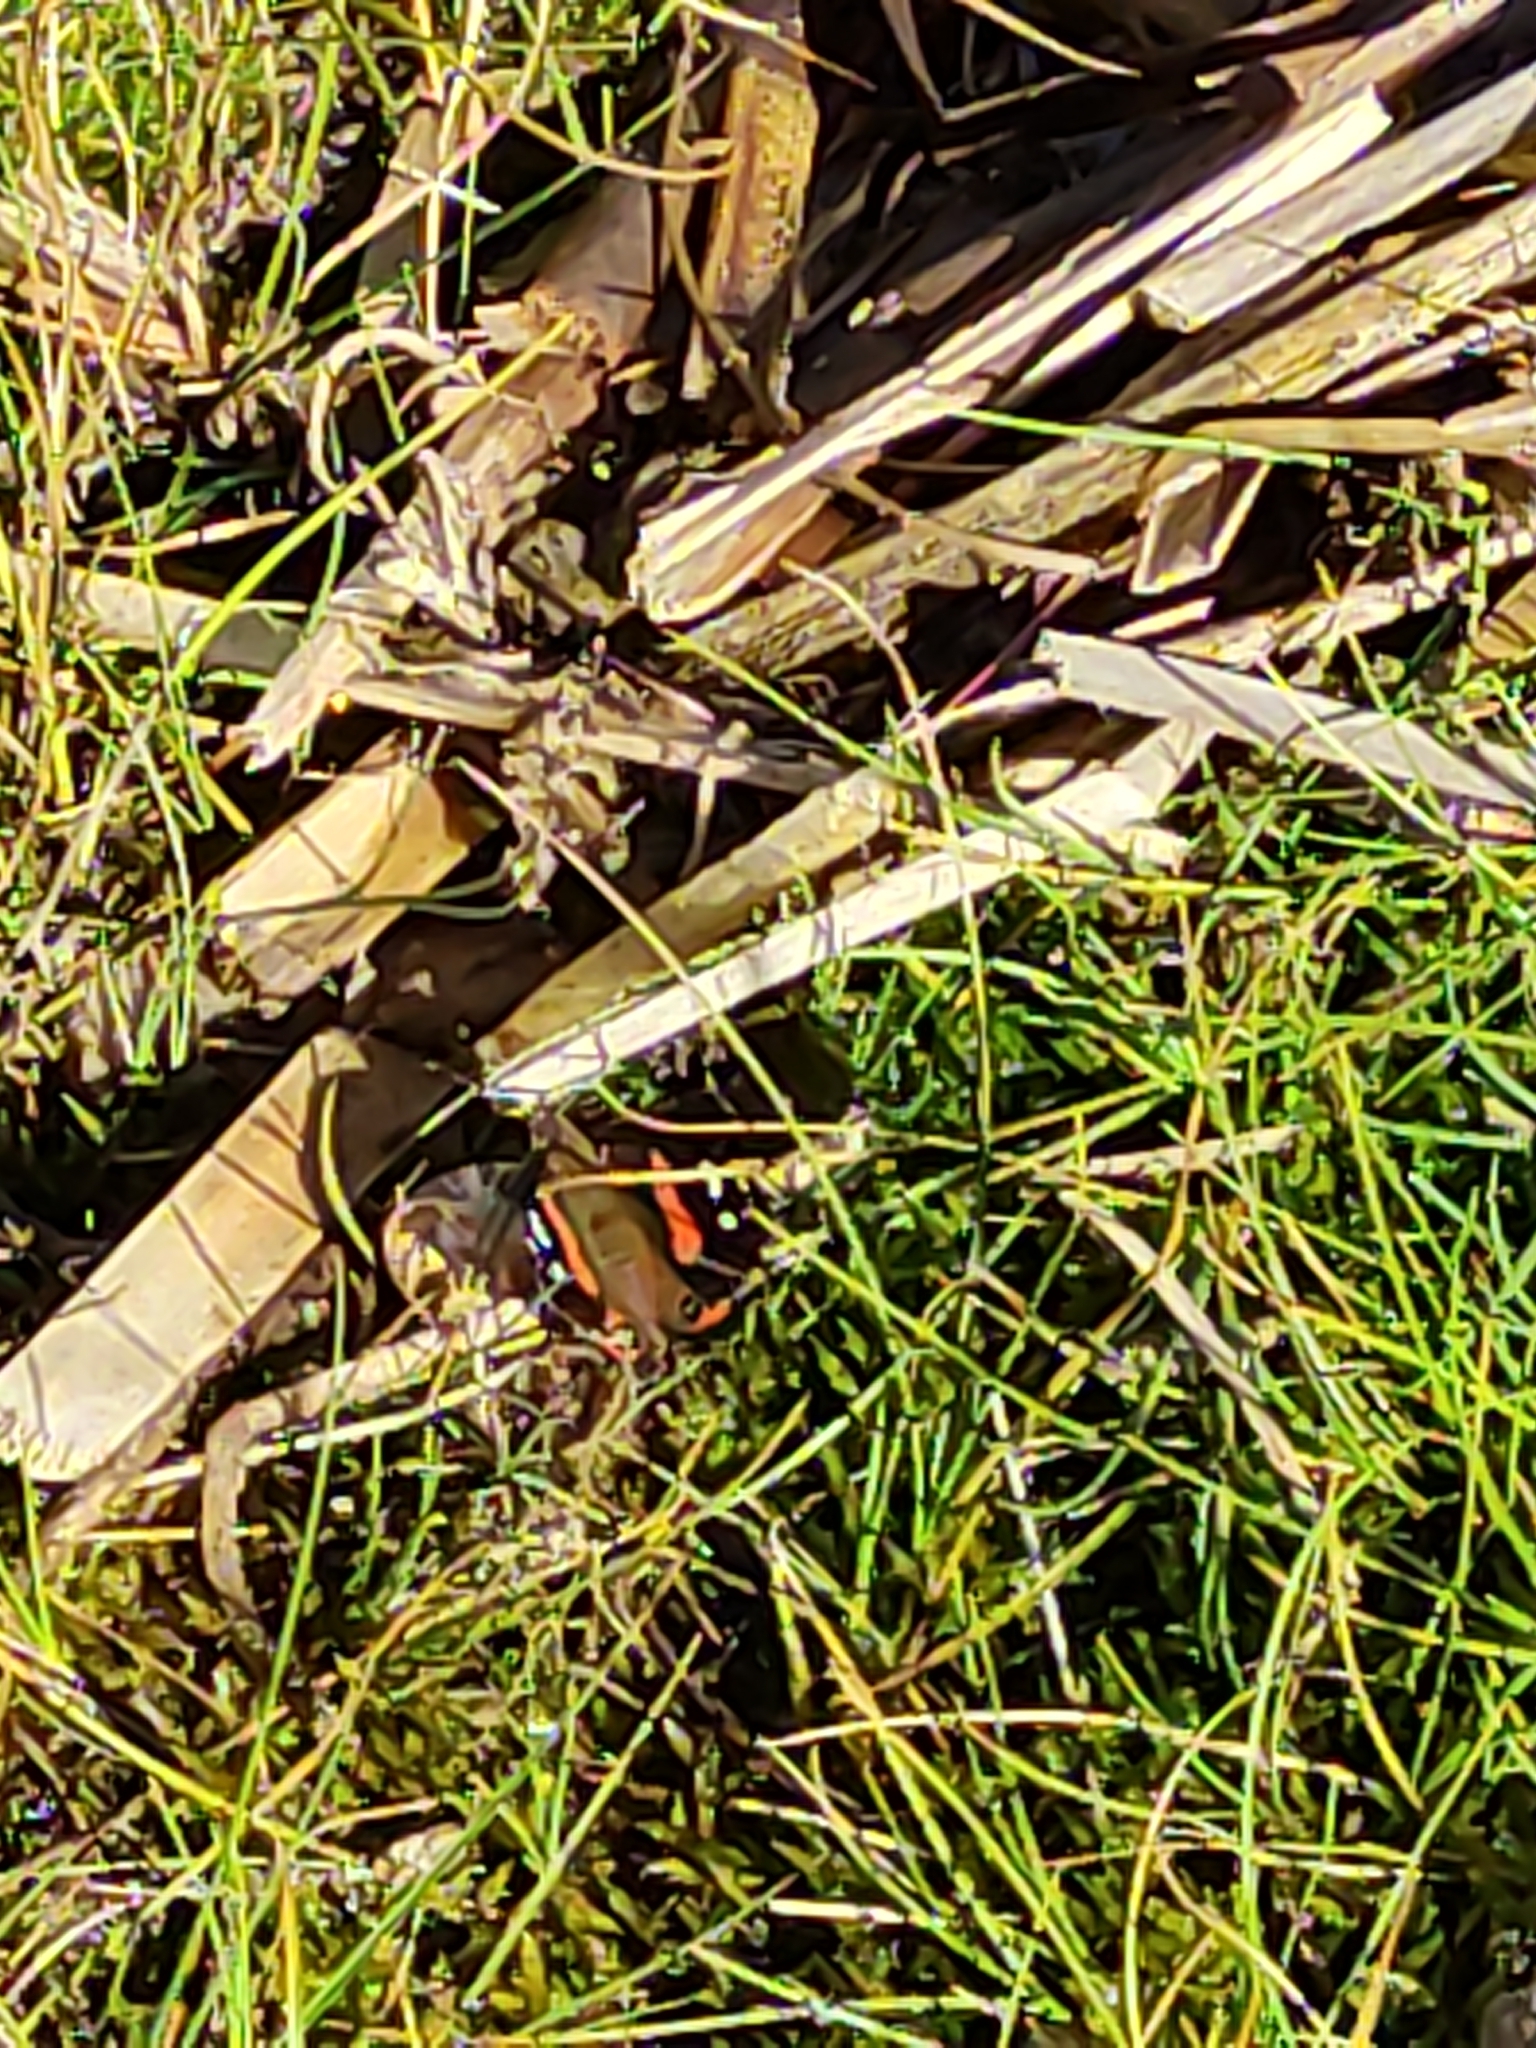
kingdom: Animalia
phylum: Arthropoda
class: Insecta
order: Lepidoptera
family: Nymphalidae
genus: Vanessa
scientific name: Vanessa gonerilla
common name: New zealand red admiral
